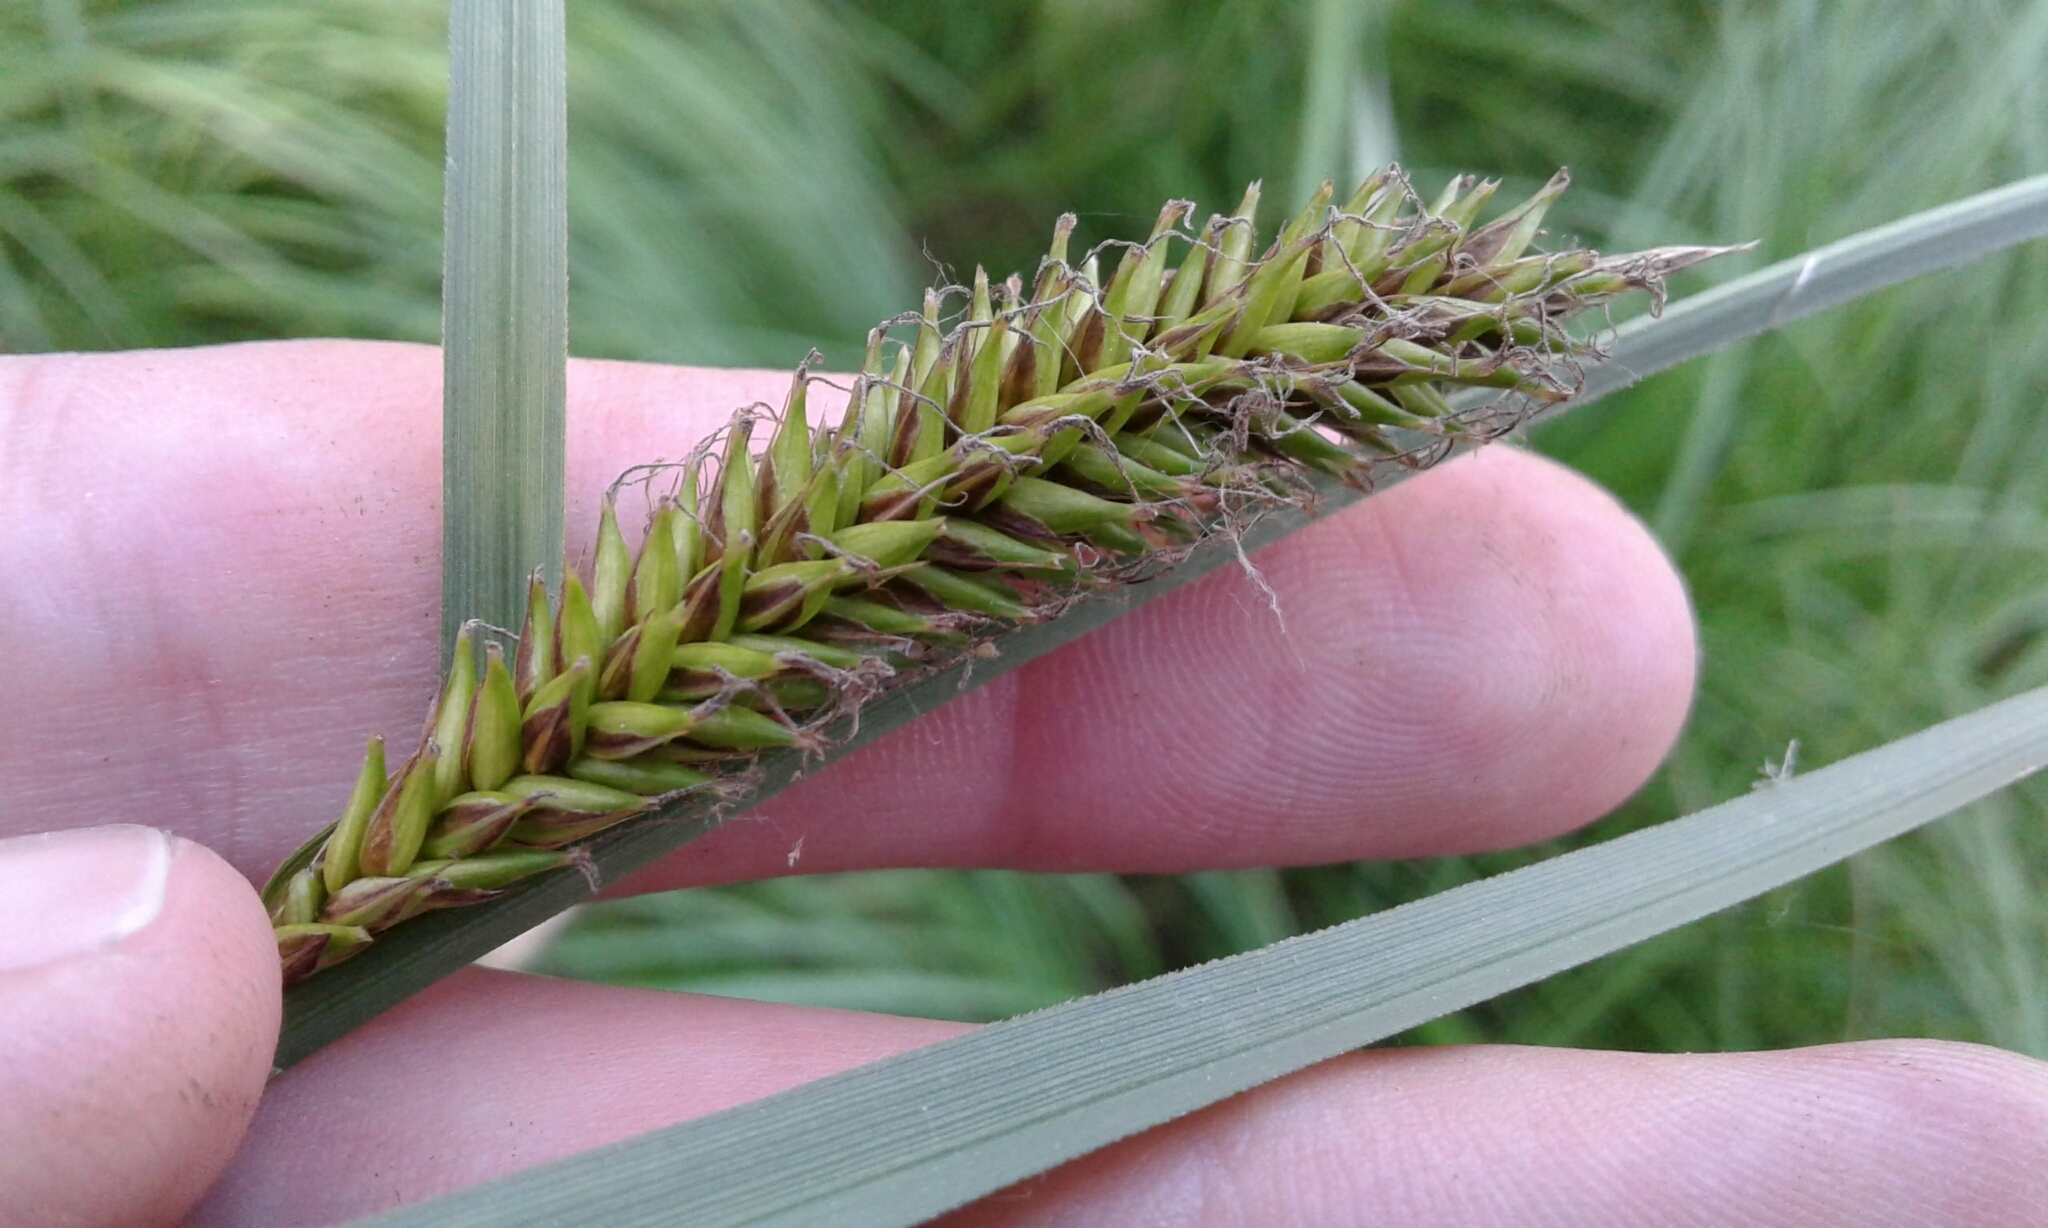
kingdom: Plantae
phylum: Tracheophyta
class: Liliopsida
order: Poales
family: Cyperaceae
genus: Carex
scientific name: Carex lacustris
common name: Common lake sedge
